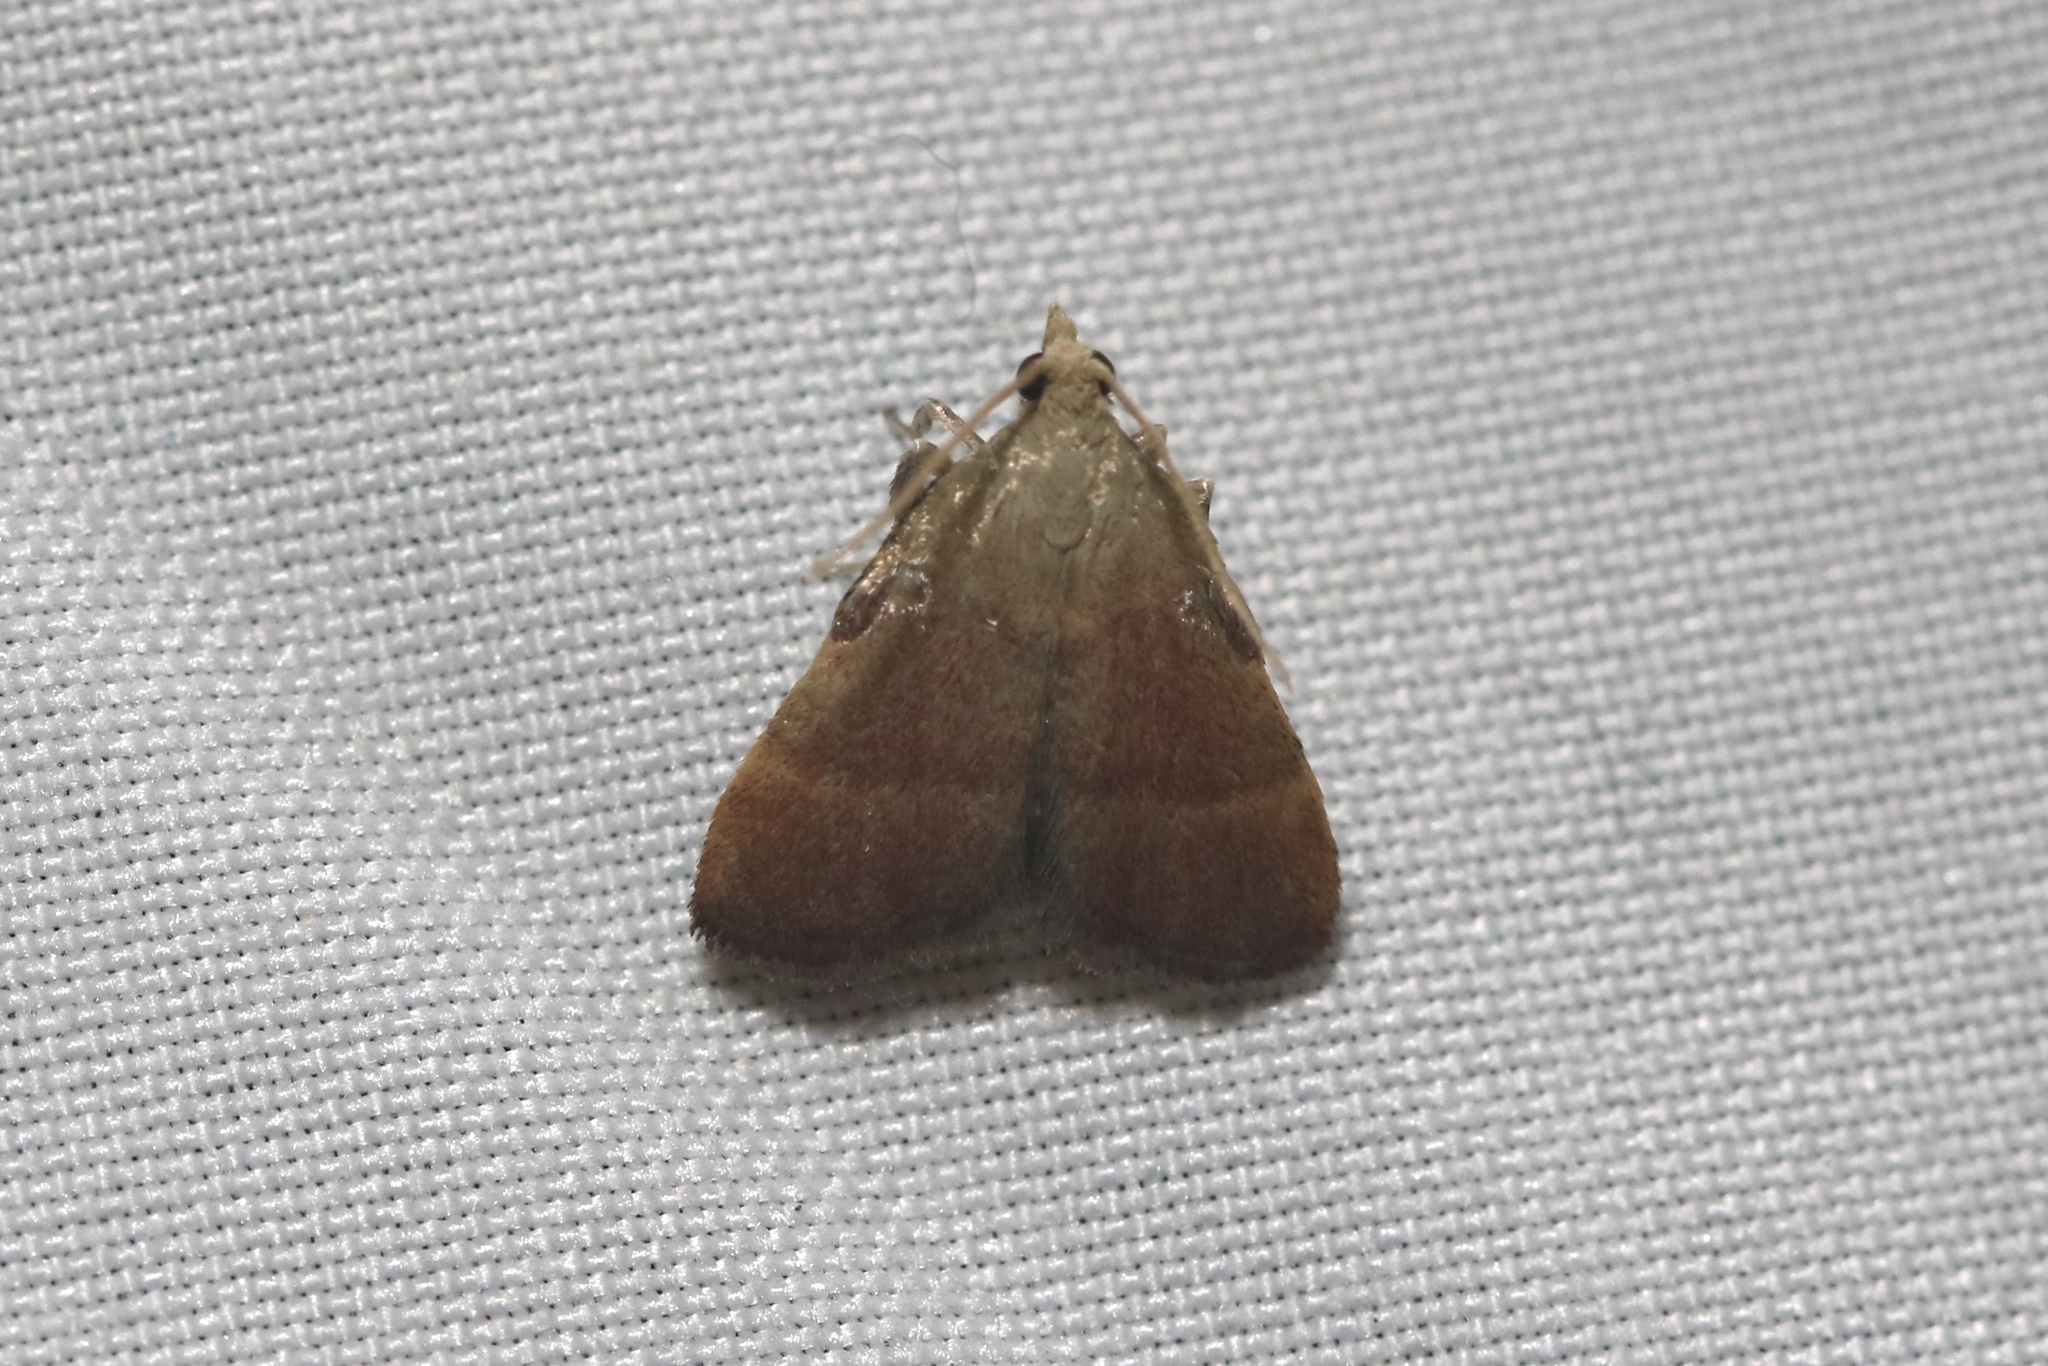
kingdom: Animalia
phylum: Arthropoda
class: Insecta
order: Lepidoptera
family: Pyralidae
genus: Condylolomia
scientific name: Condylolomia participialis
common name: Drab condylolomia moth
